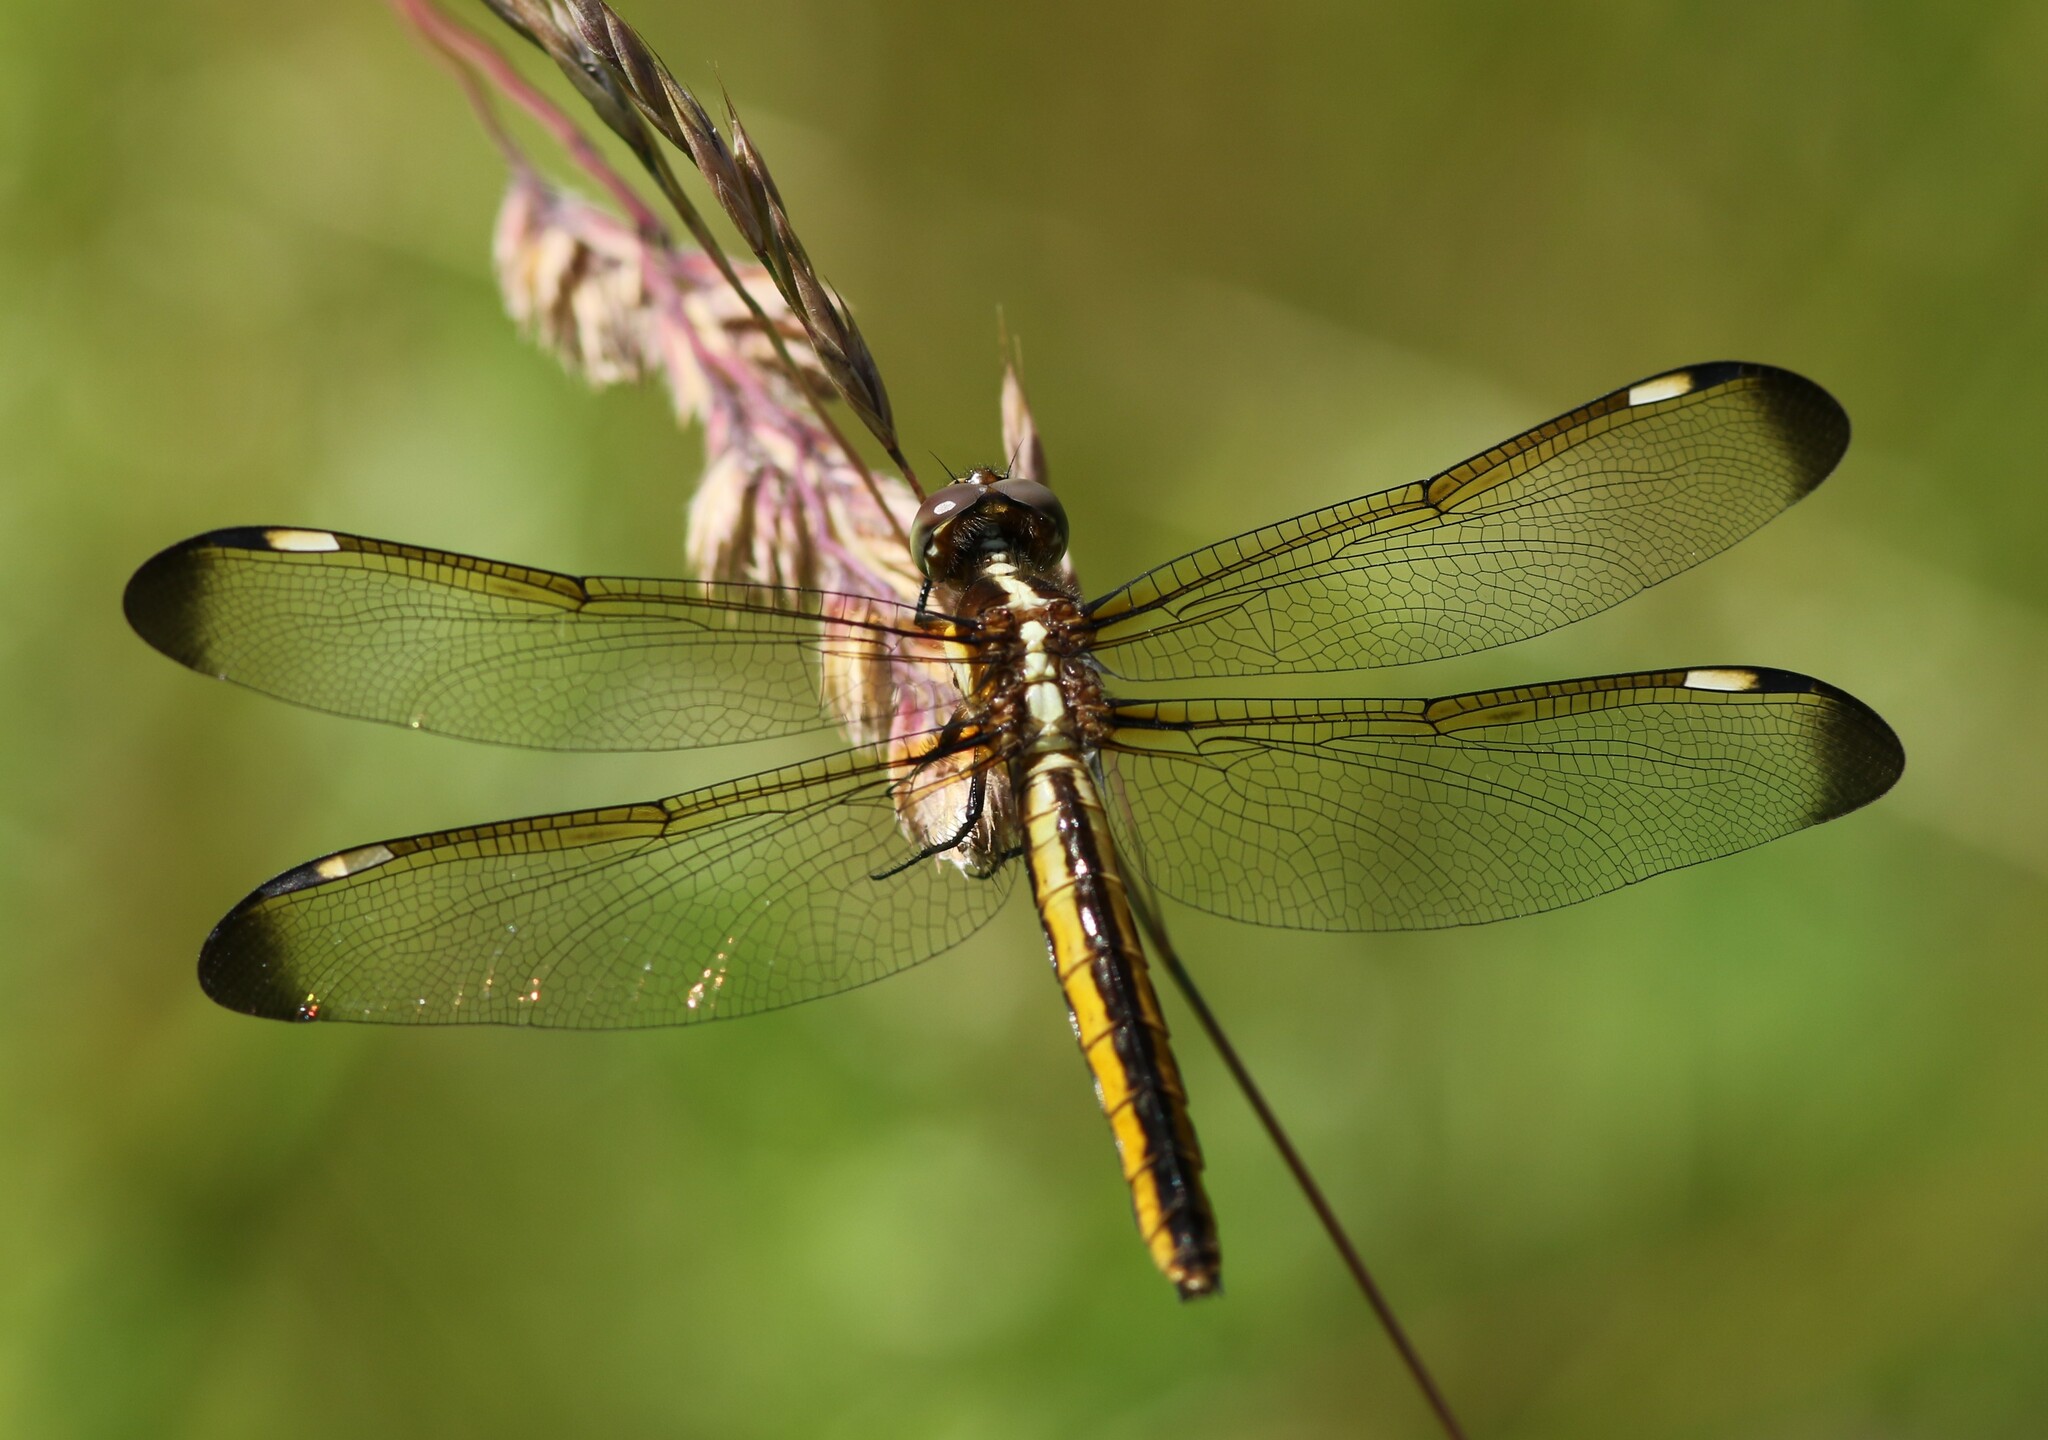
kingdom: Animalia
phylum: Arthropoda
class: Insecta
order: Odonata
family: Libellulidae
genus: Libellula
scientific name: Libellula cyanea
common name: Spangled skimmer
